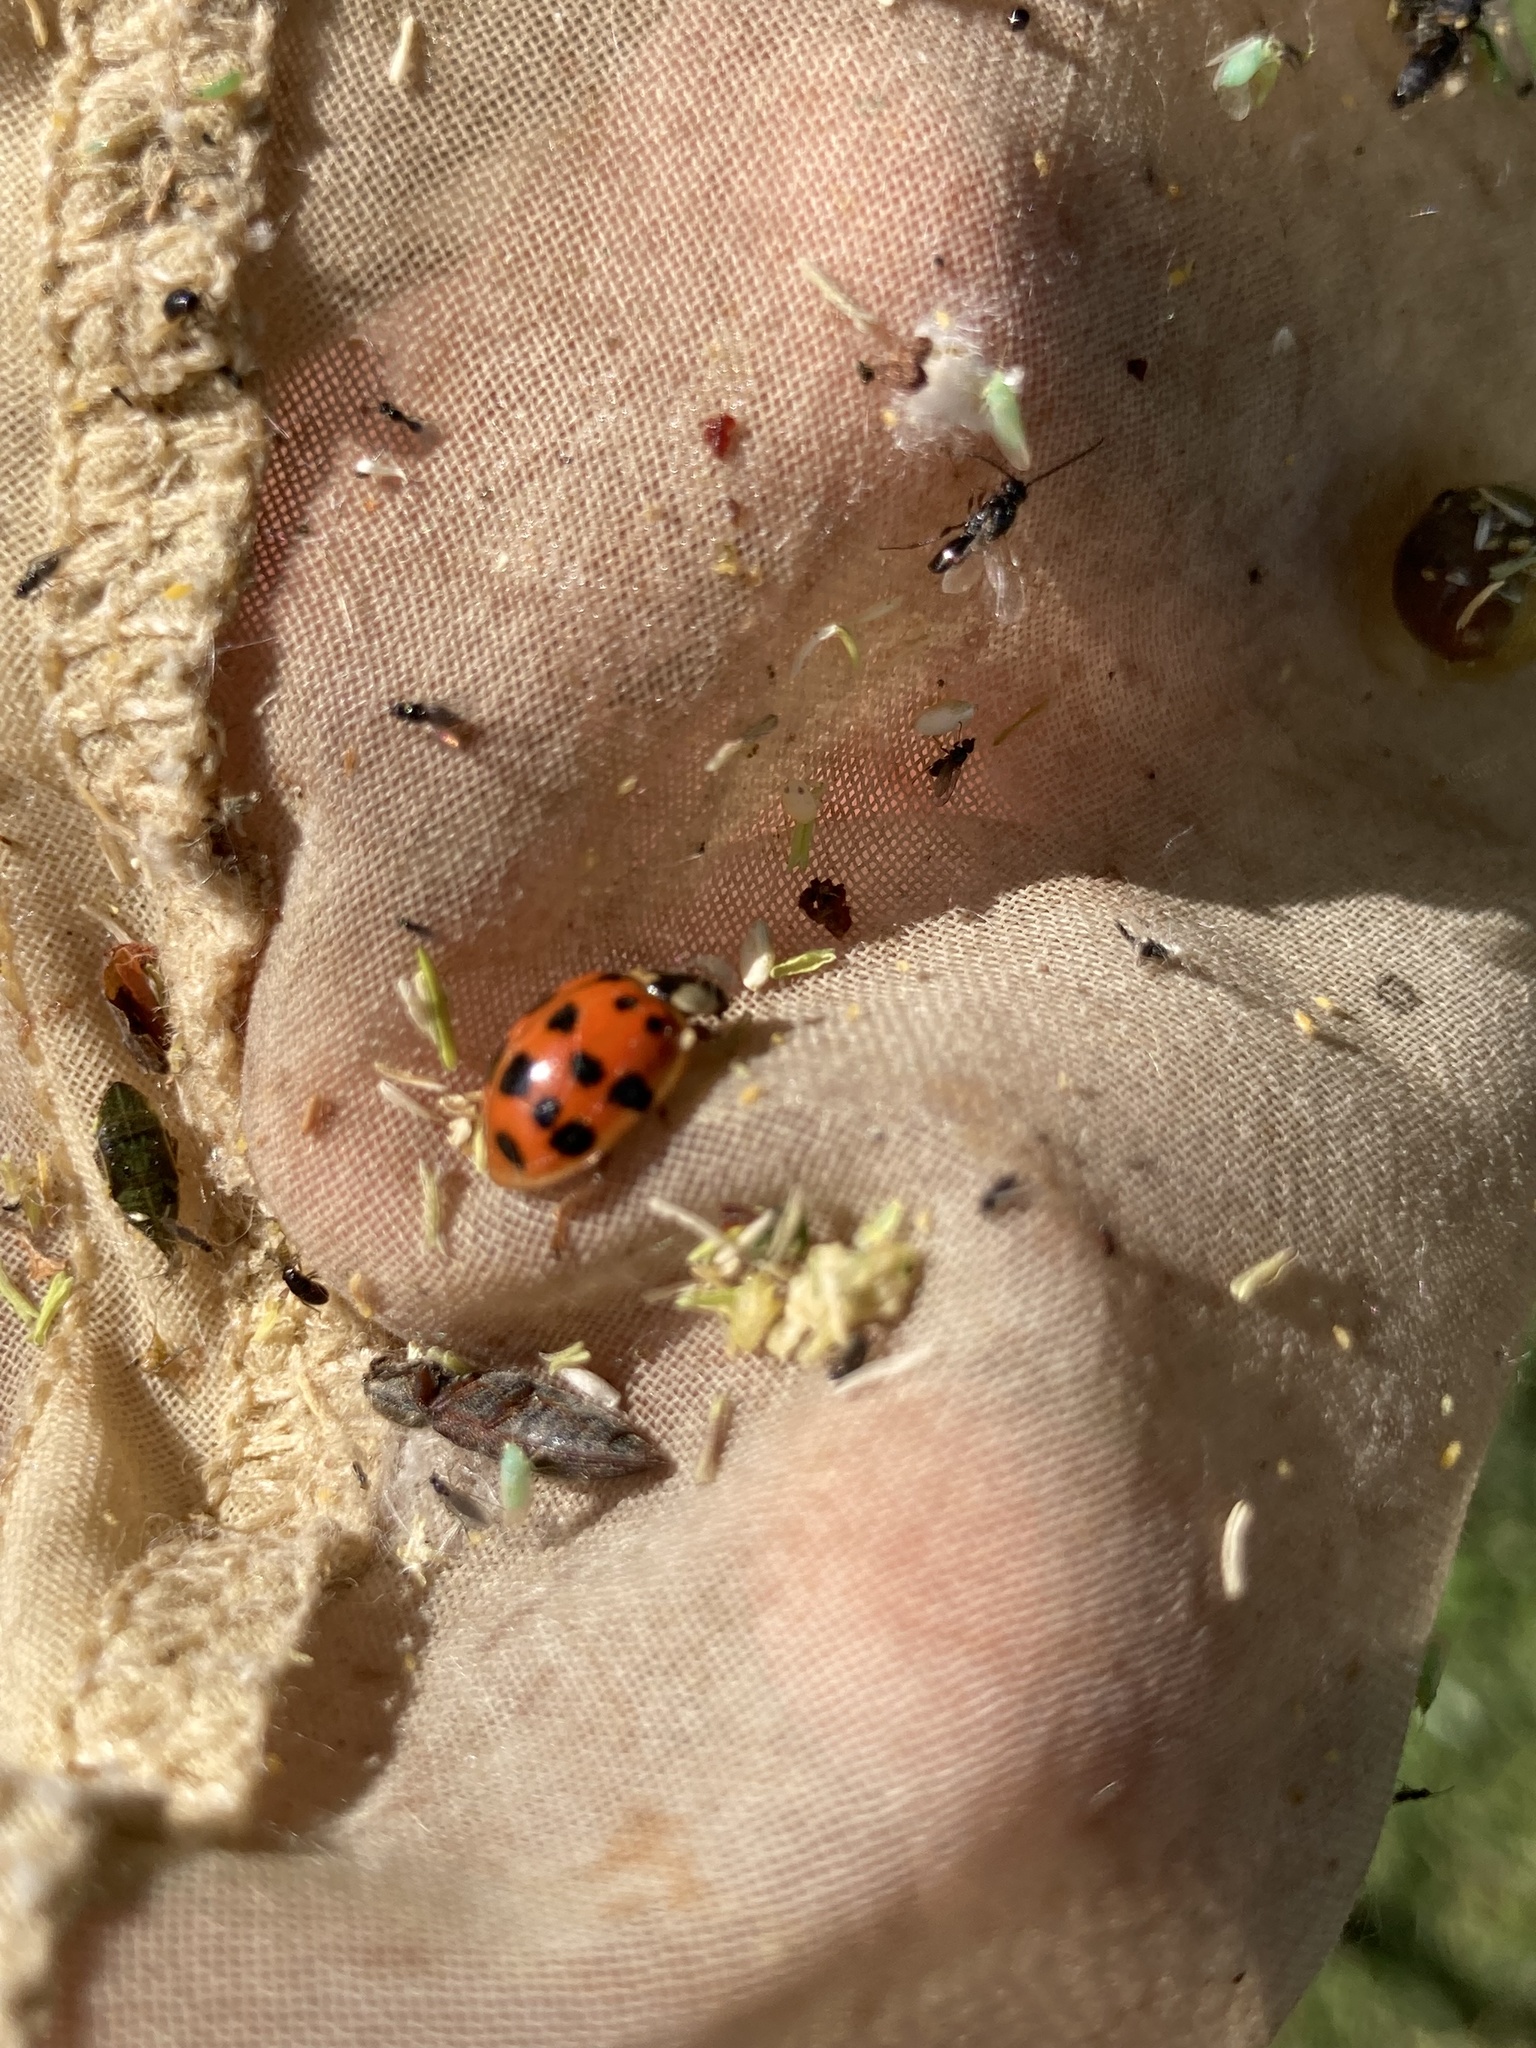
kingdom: Animalia
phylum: Arthropoda
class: Insecta
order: Coleoptera
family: Coccinellidae
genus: Harmonia
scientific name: Harmonia axyridis
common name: Harlequin ladybird
